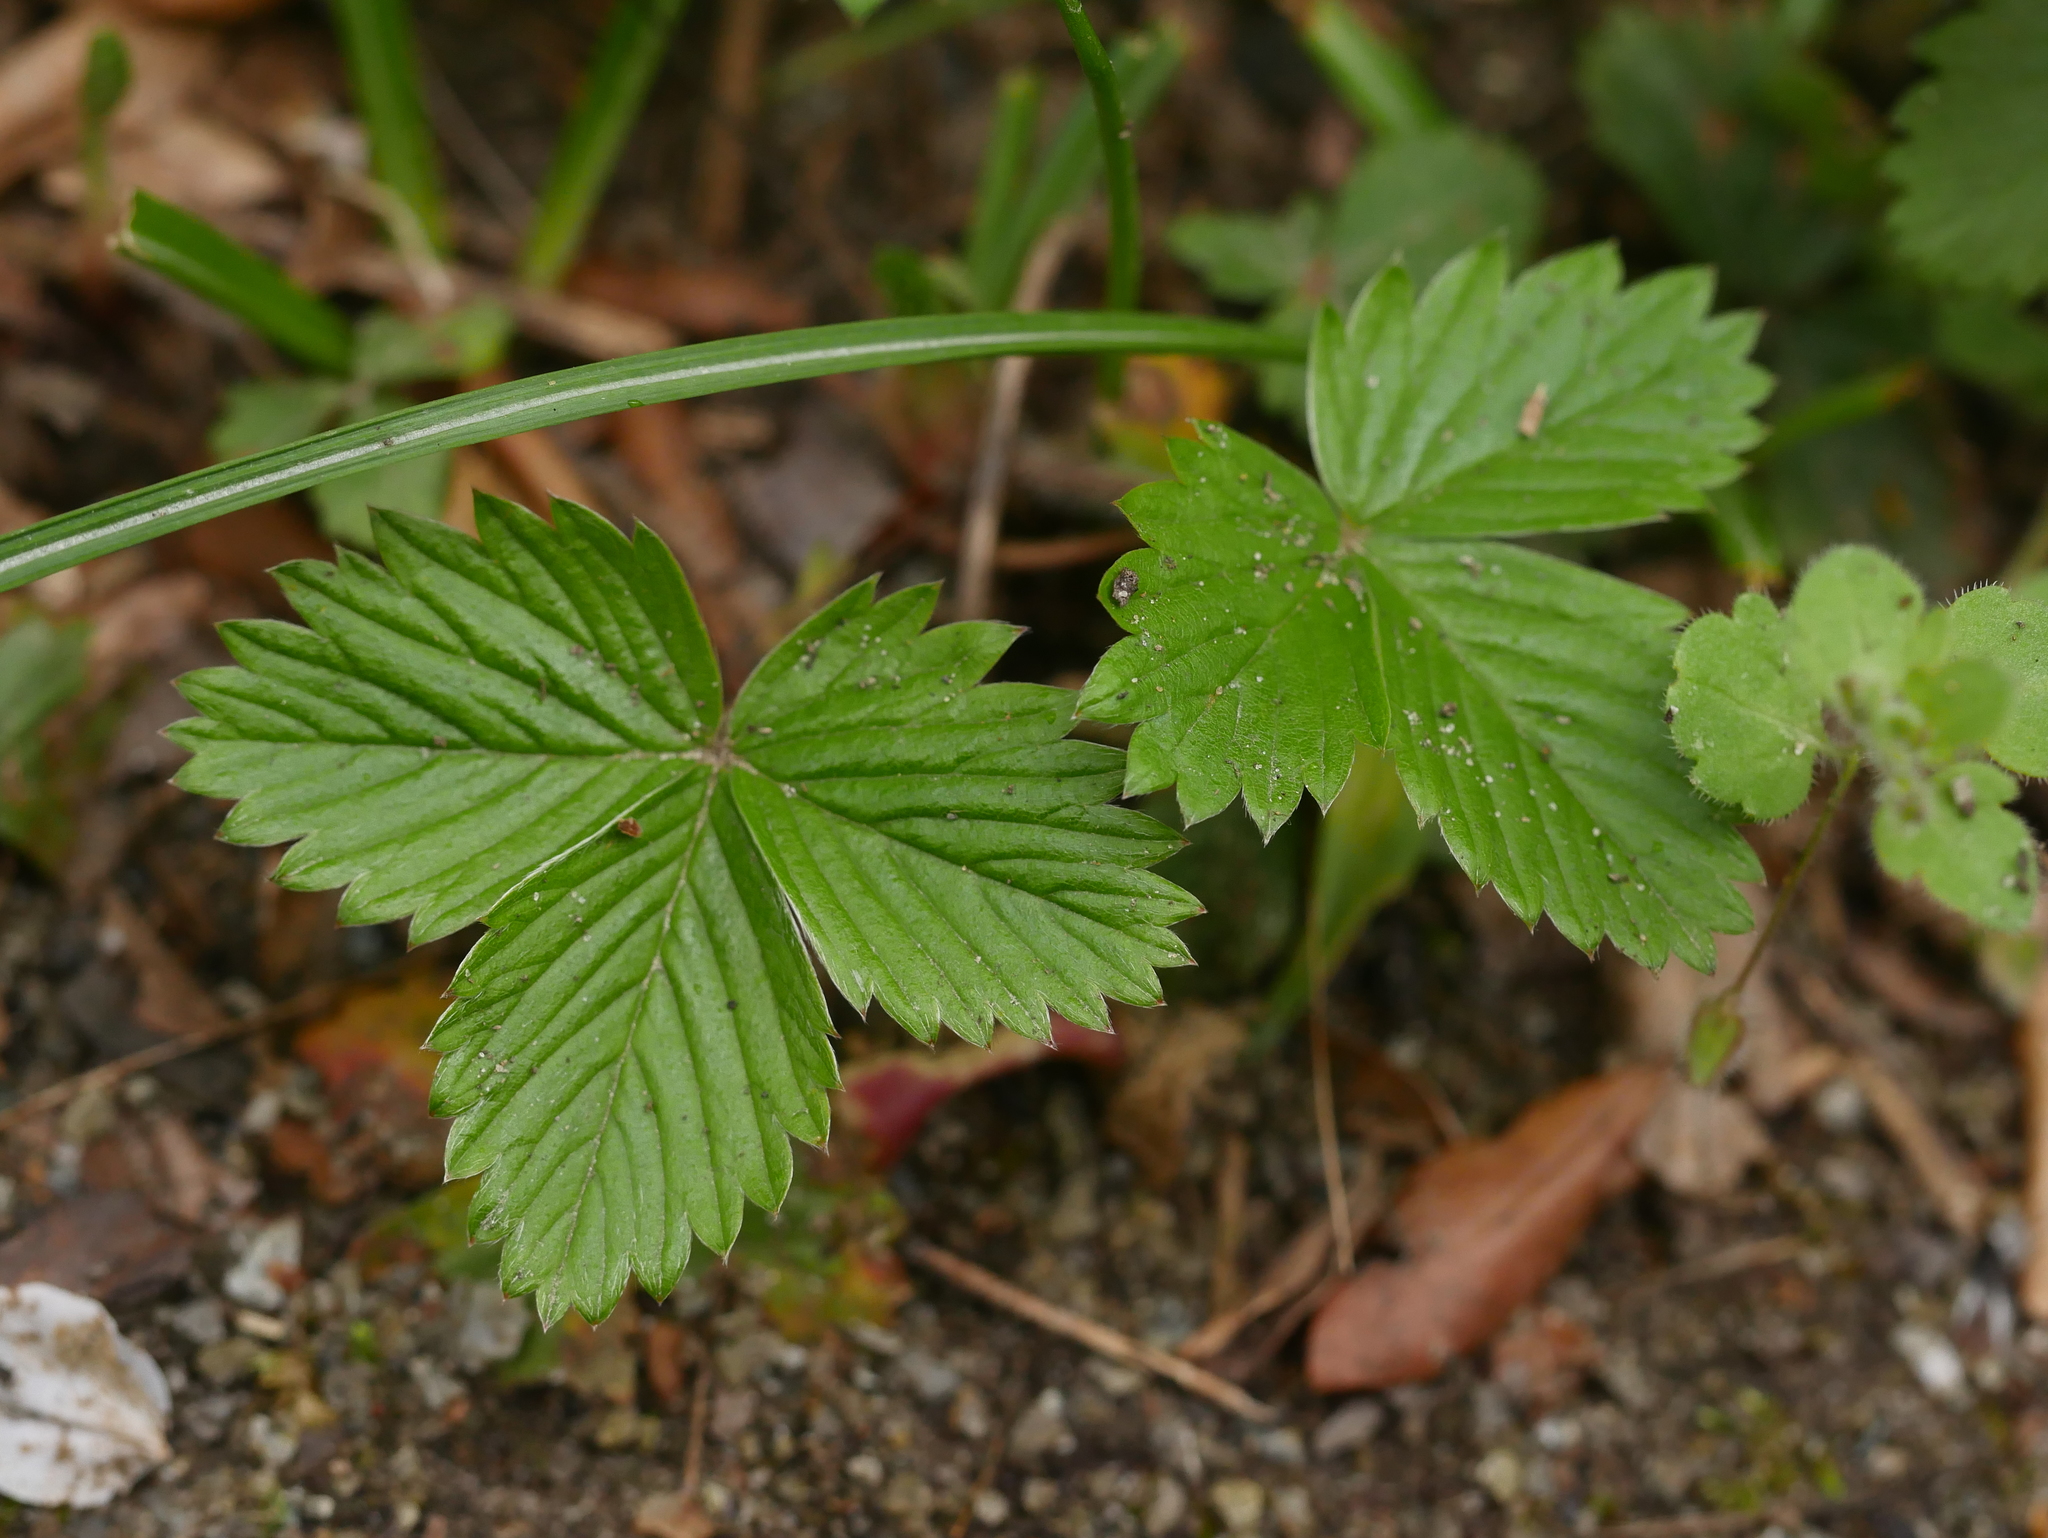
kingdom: Plantae
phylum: Tracheophyta
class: Magnoliopsida
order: Rosales
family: Rosaceae
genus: Fragaria
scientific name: Fragaria vesca
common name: Wild strawberry
